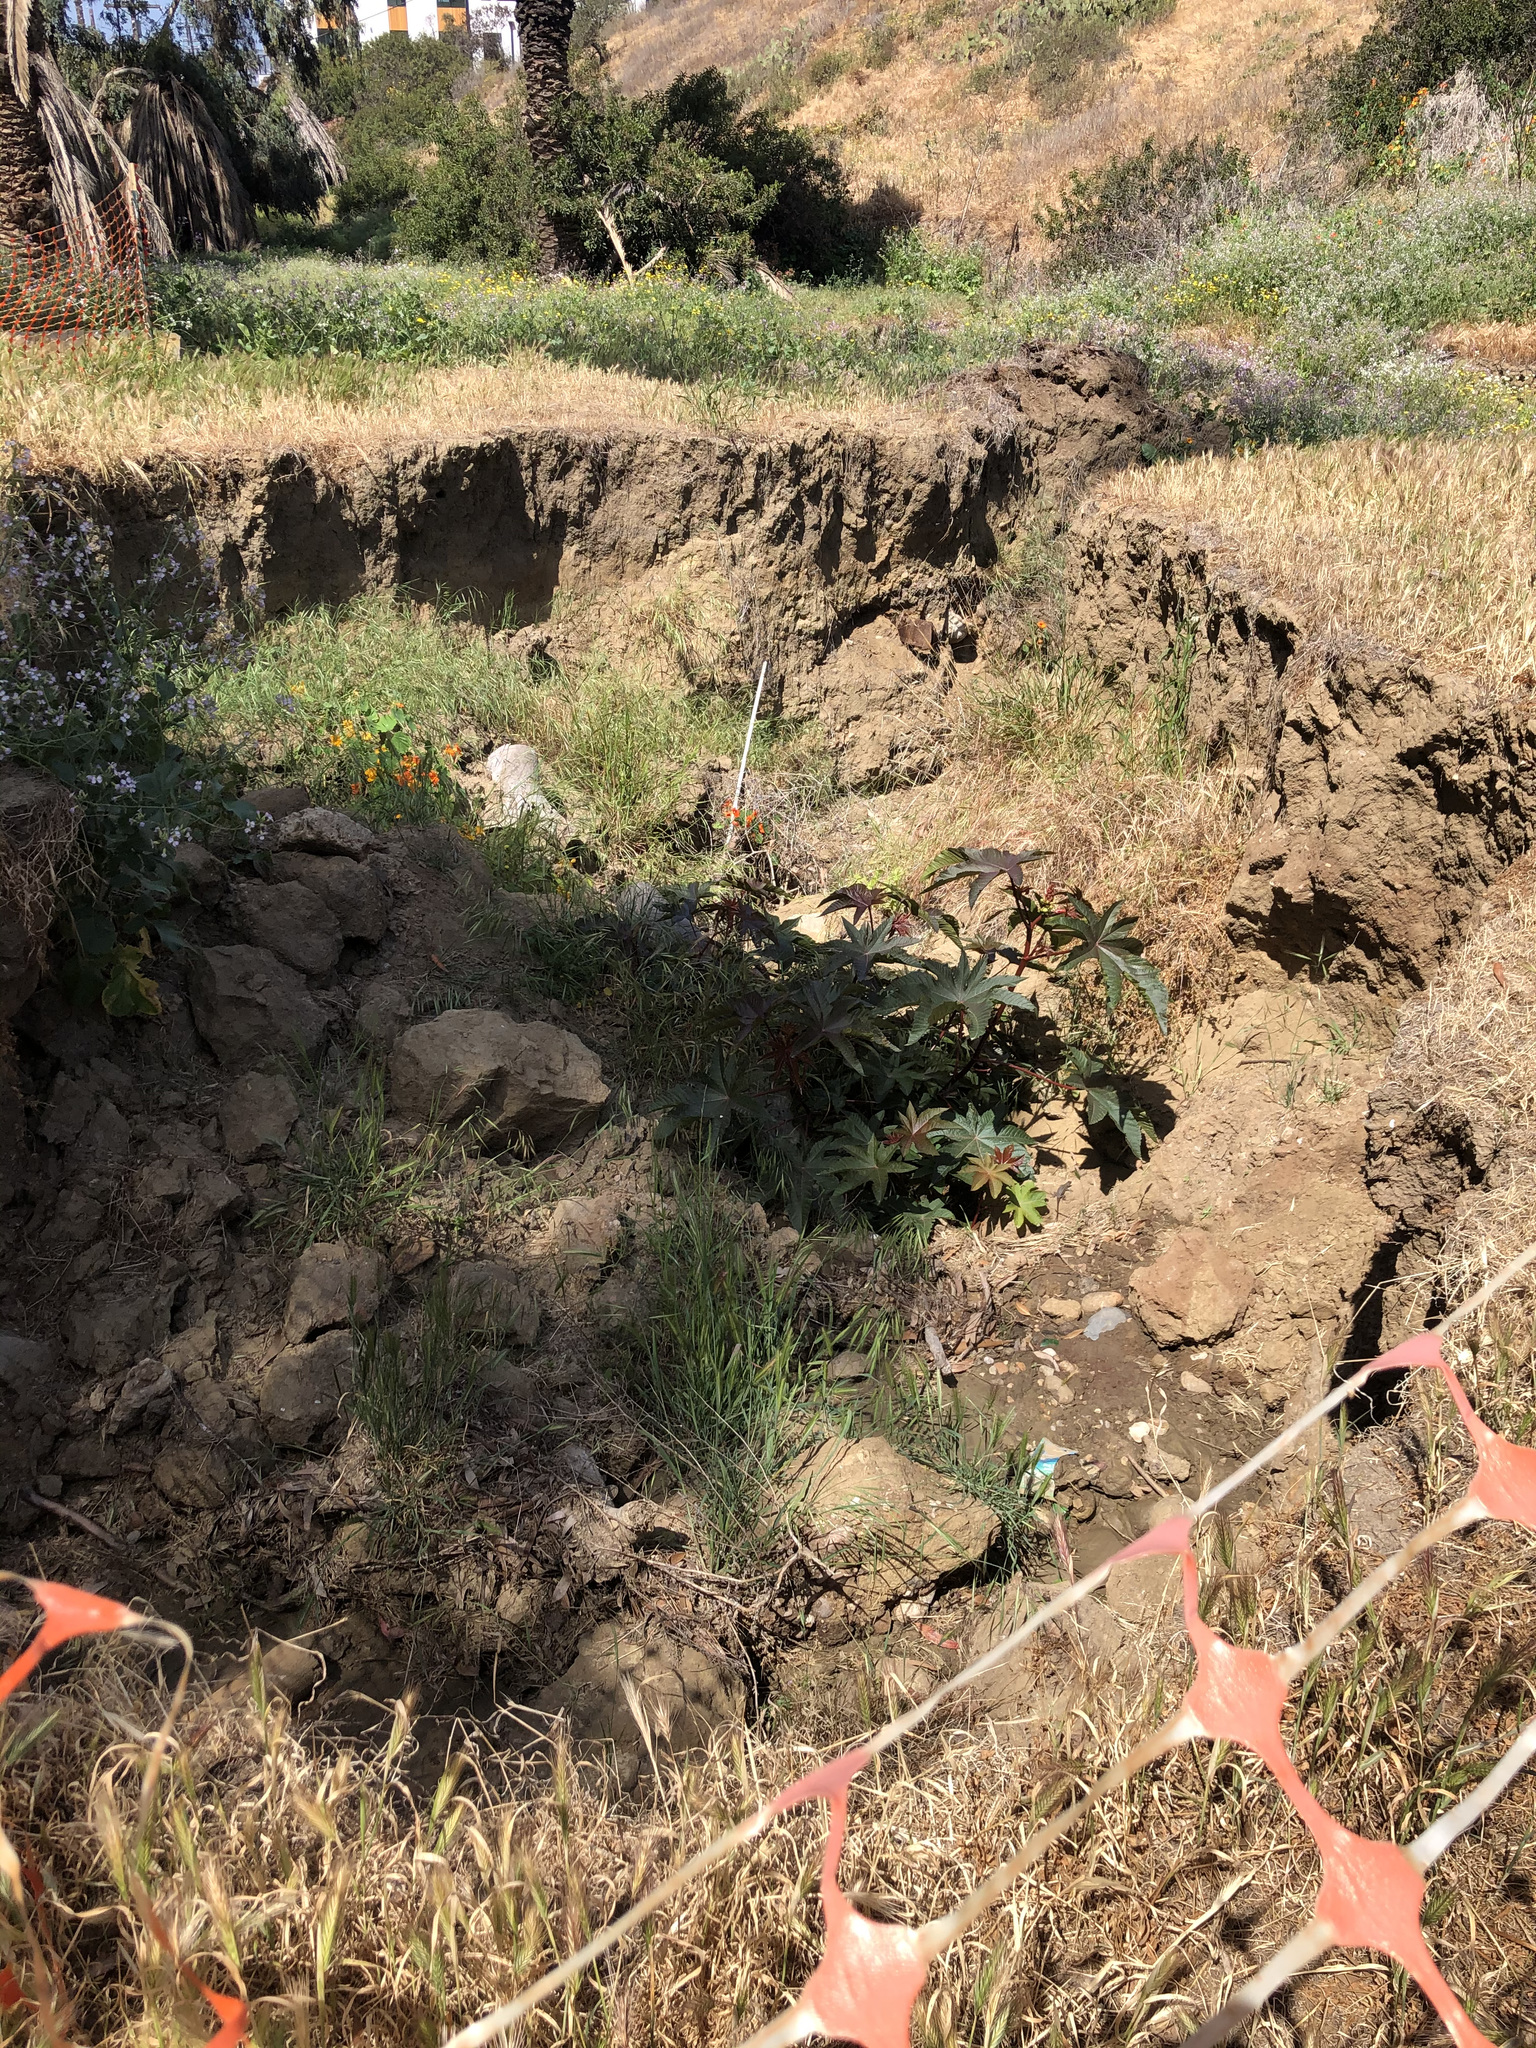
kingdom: Plantae
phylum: Tracheophyta
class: Magnoliopsida
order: Malpighiales
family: Euphorbiaceae
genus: Ricinus
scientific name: Ricinus communis
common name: Castor-oil-plant
